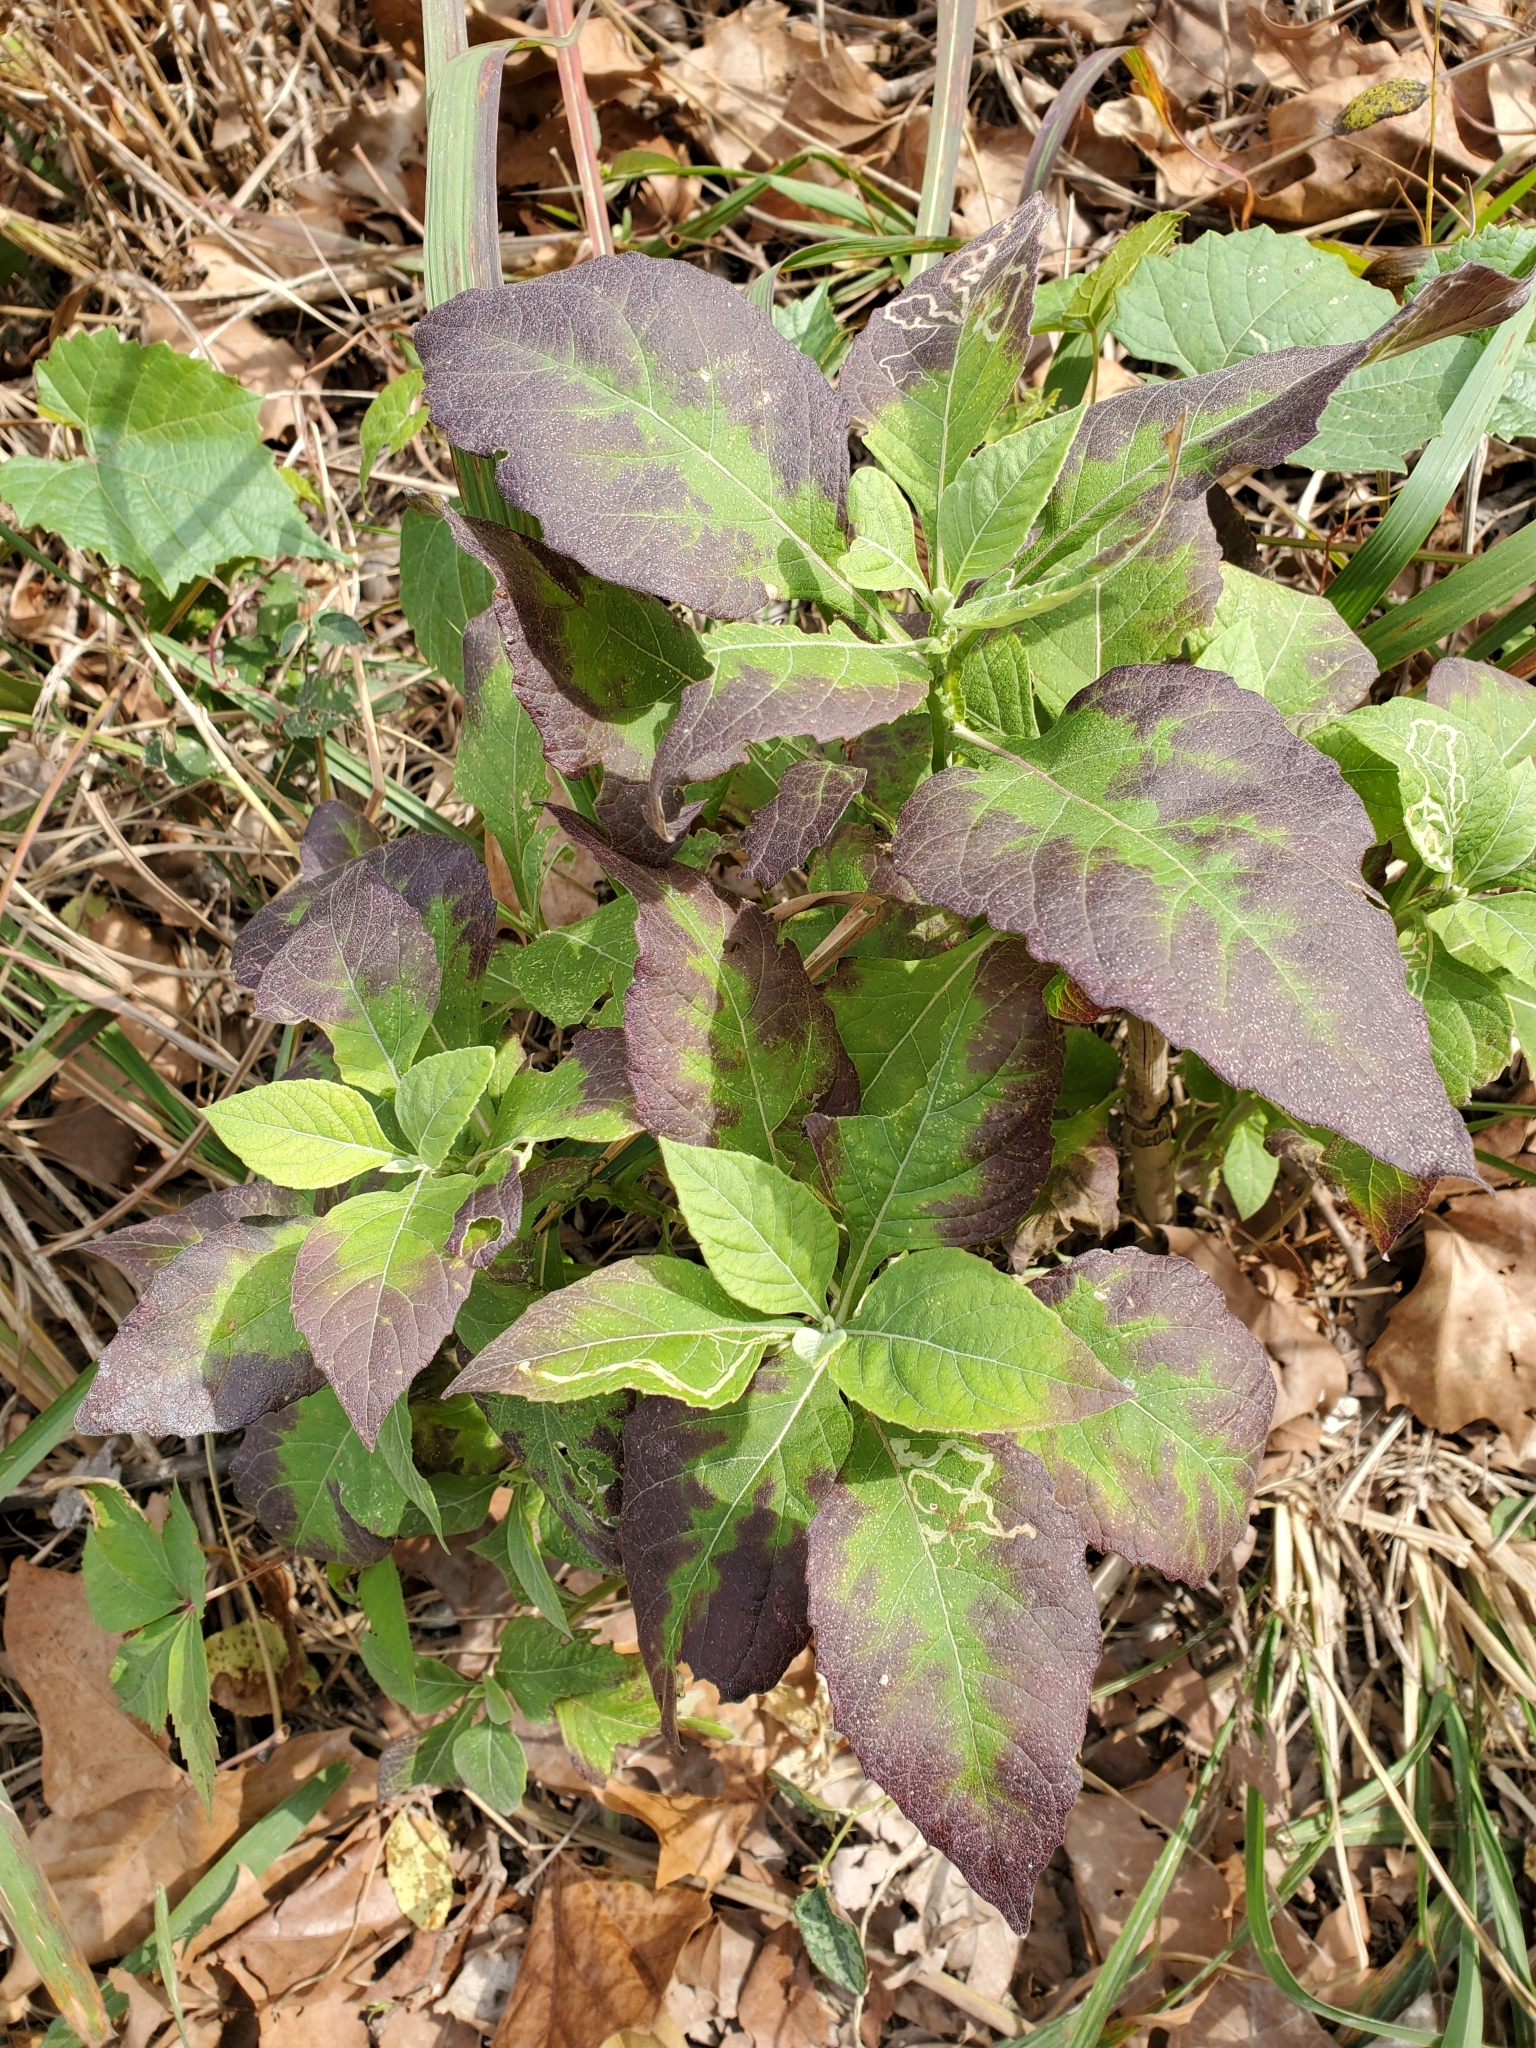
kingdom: Plantae
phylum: Tracheophyta
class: Magnoliopsida
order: Asterales
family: Asteraceae
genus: Verbesina
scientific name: Verbesina virginica
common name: Frostweed
